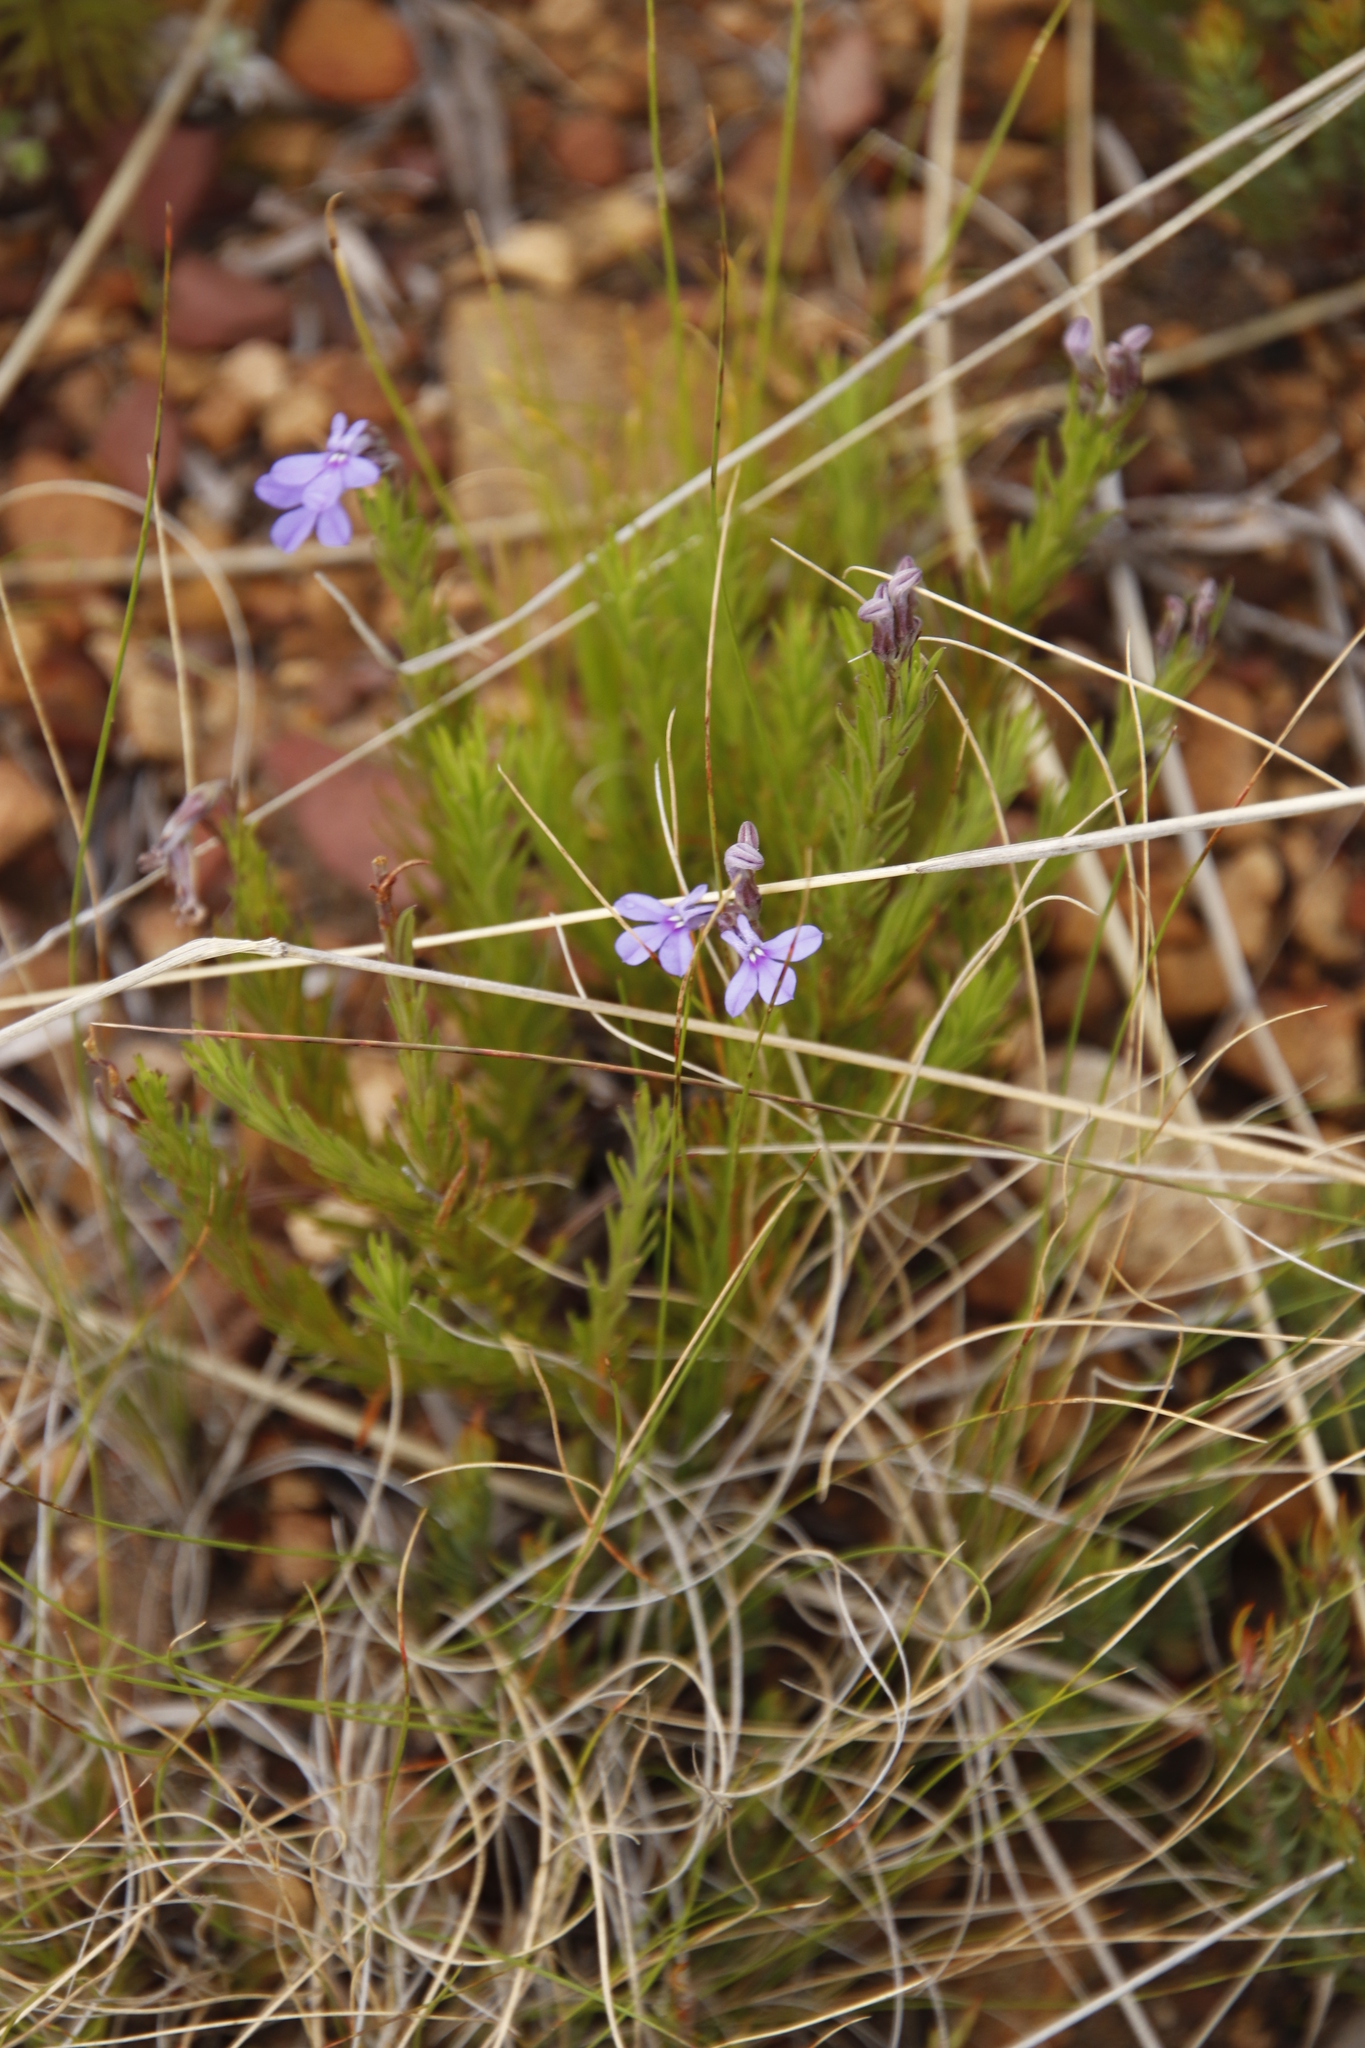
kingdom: Plantae
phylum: Tracheophyta
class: Magnoliopsida
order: Asterales
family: Campanulaceae
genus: Lobelia
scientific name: Lobelia pinifolia
